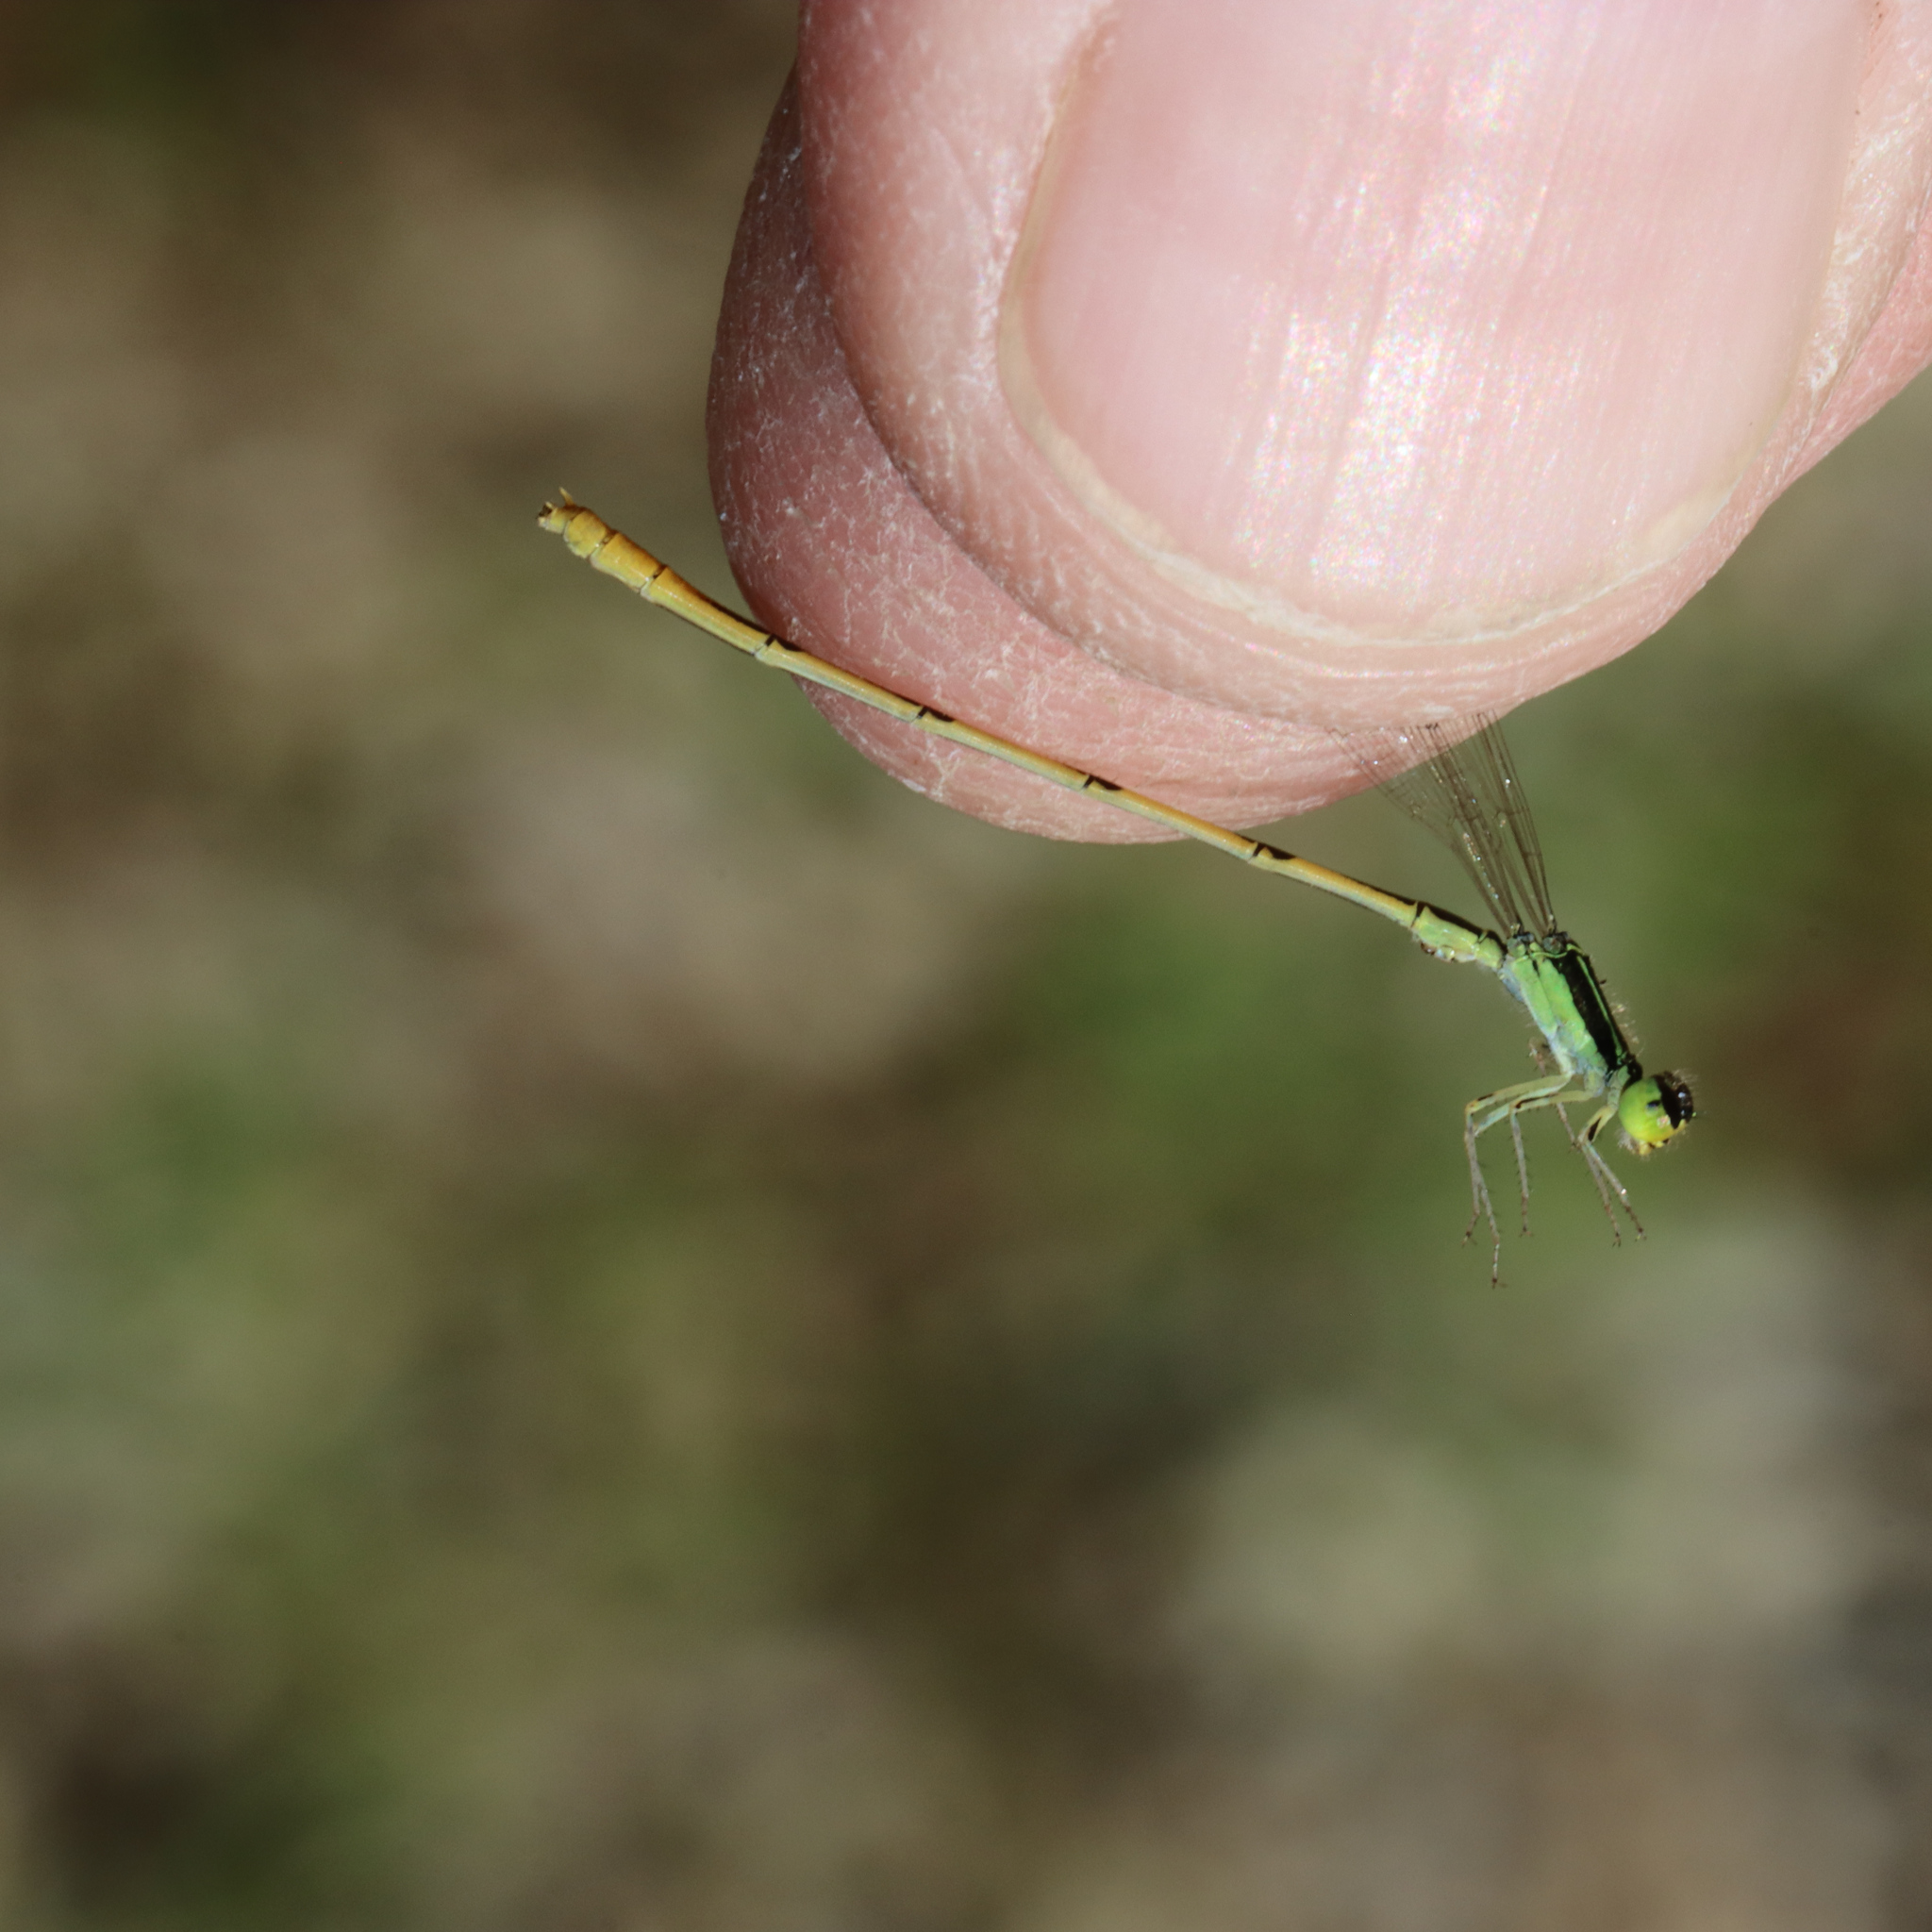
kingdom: Animalia
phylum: Arthropoda
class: Insecta
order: Odonata
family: Coenagrionidae
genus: Ischnura
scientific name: Ischnura hastata
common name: Citrine forktail
